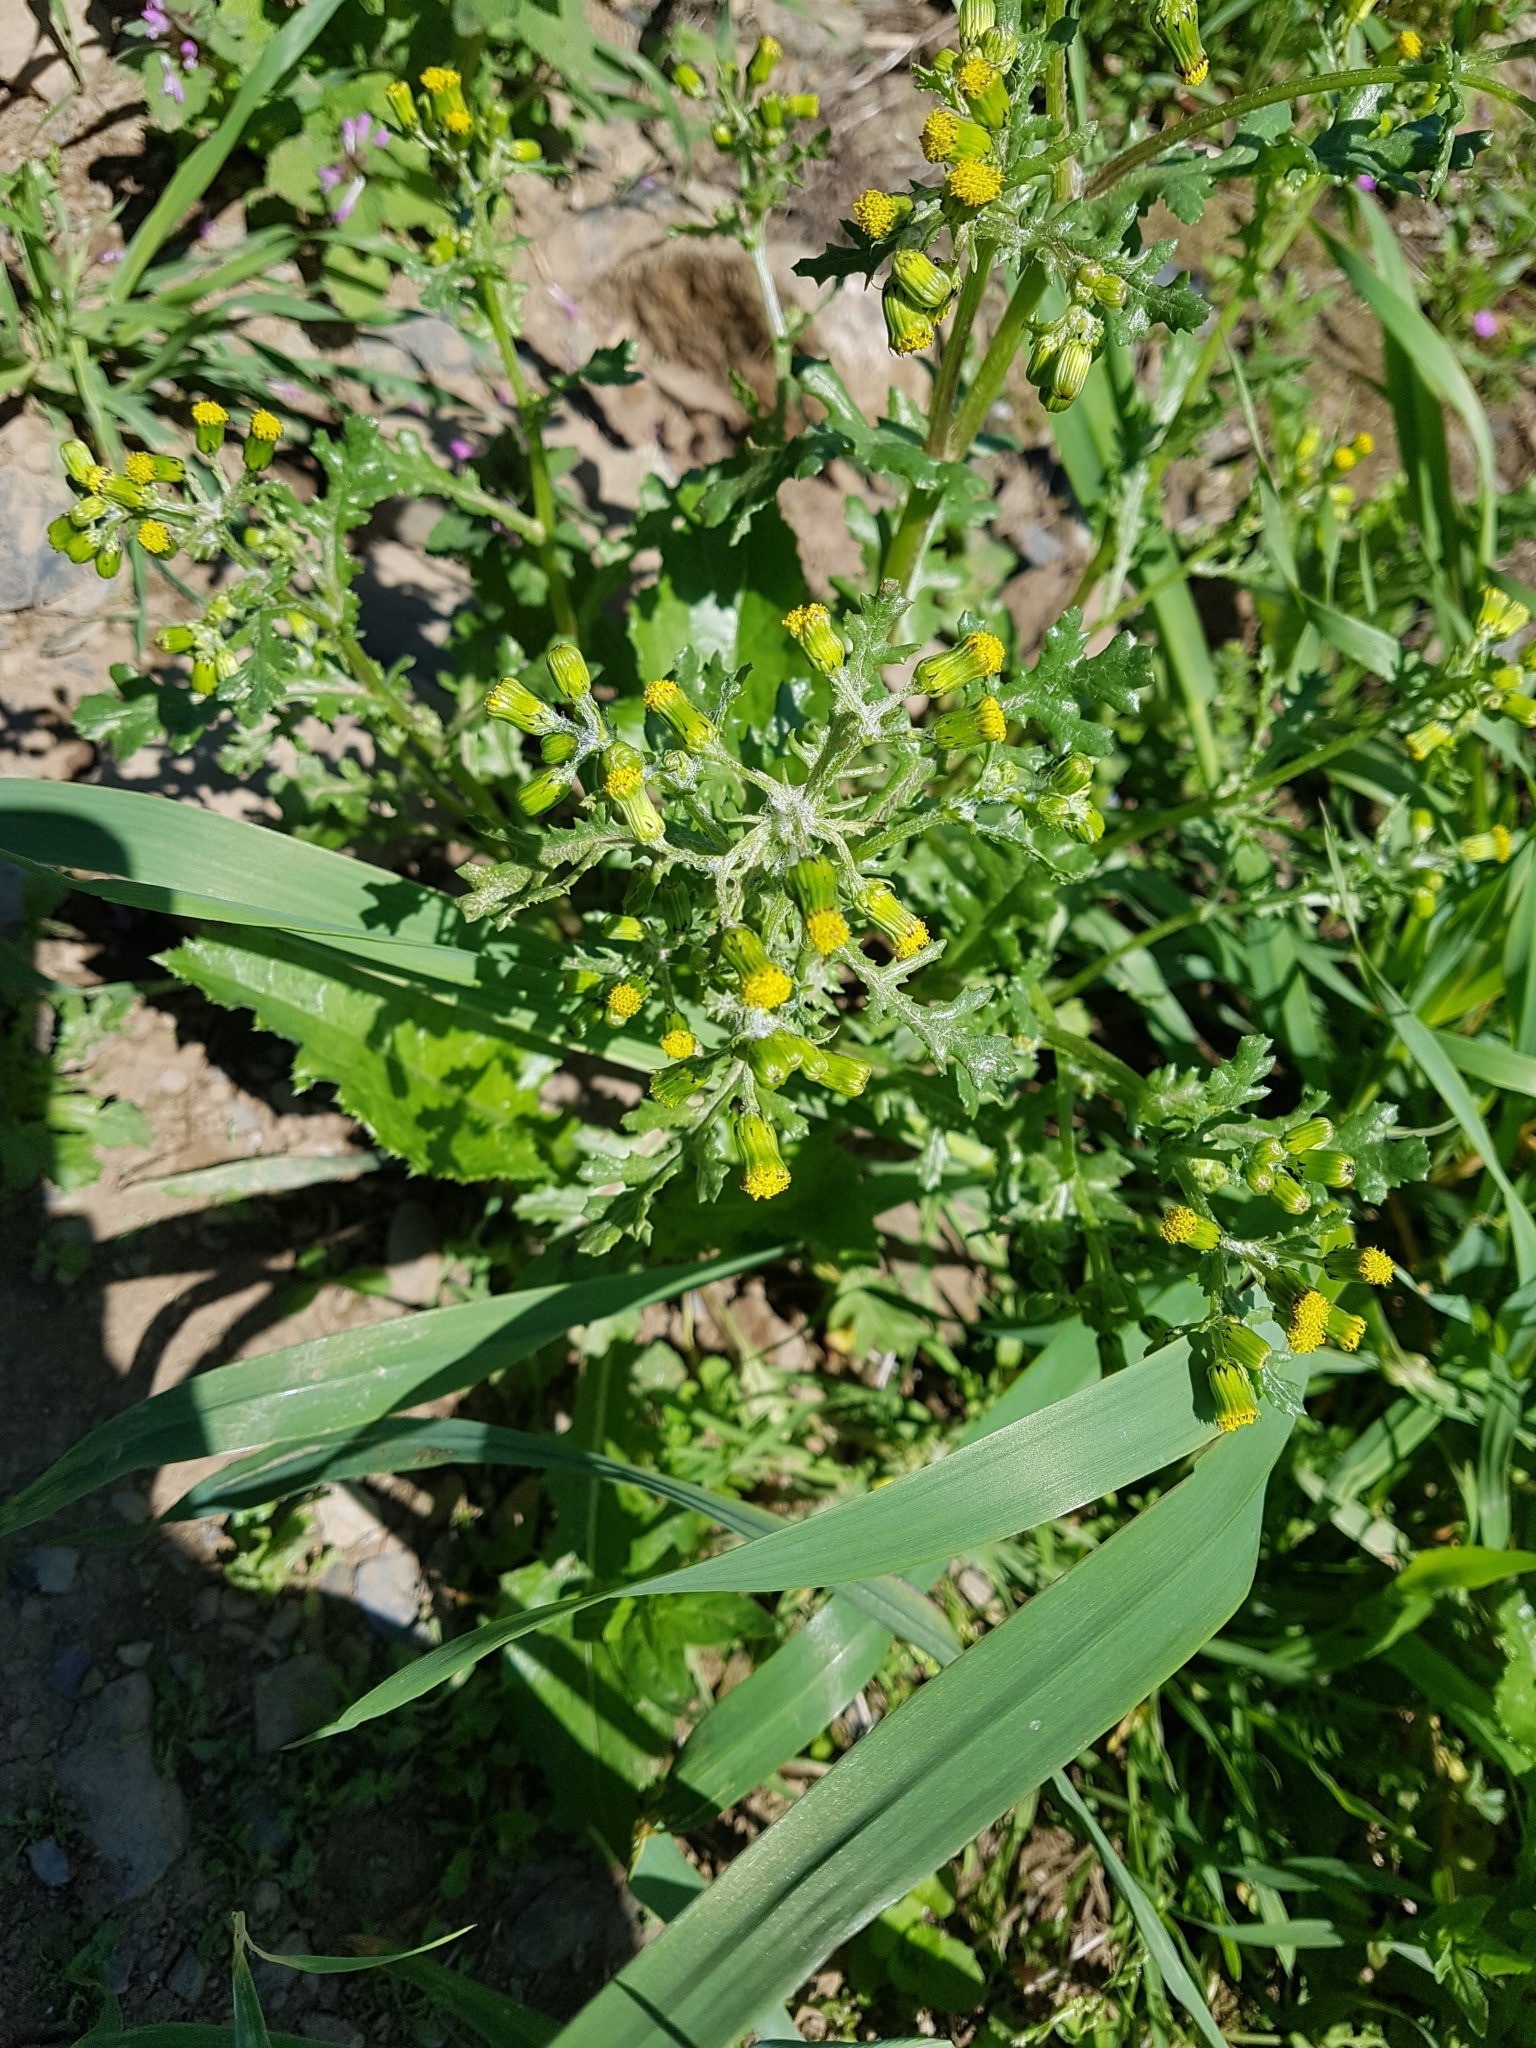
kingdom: Plantae
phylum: Tracheophyta
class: Magnoliopsida
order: Asterales
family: Asteraceae
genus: Senecio
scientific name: Senecio vulgaris
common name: Old-man-in-the-spring
